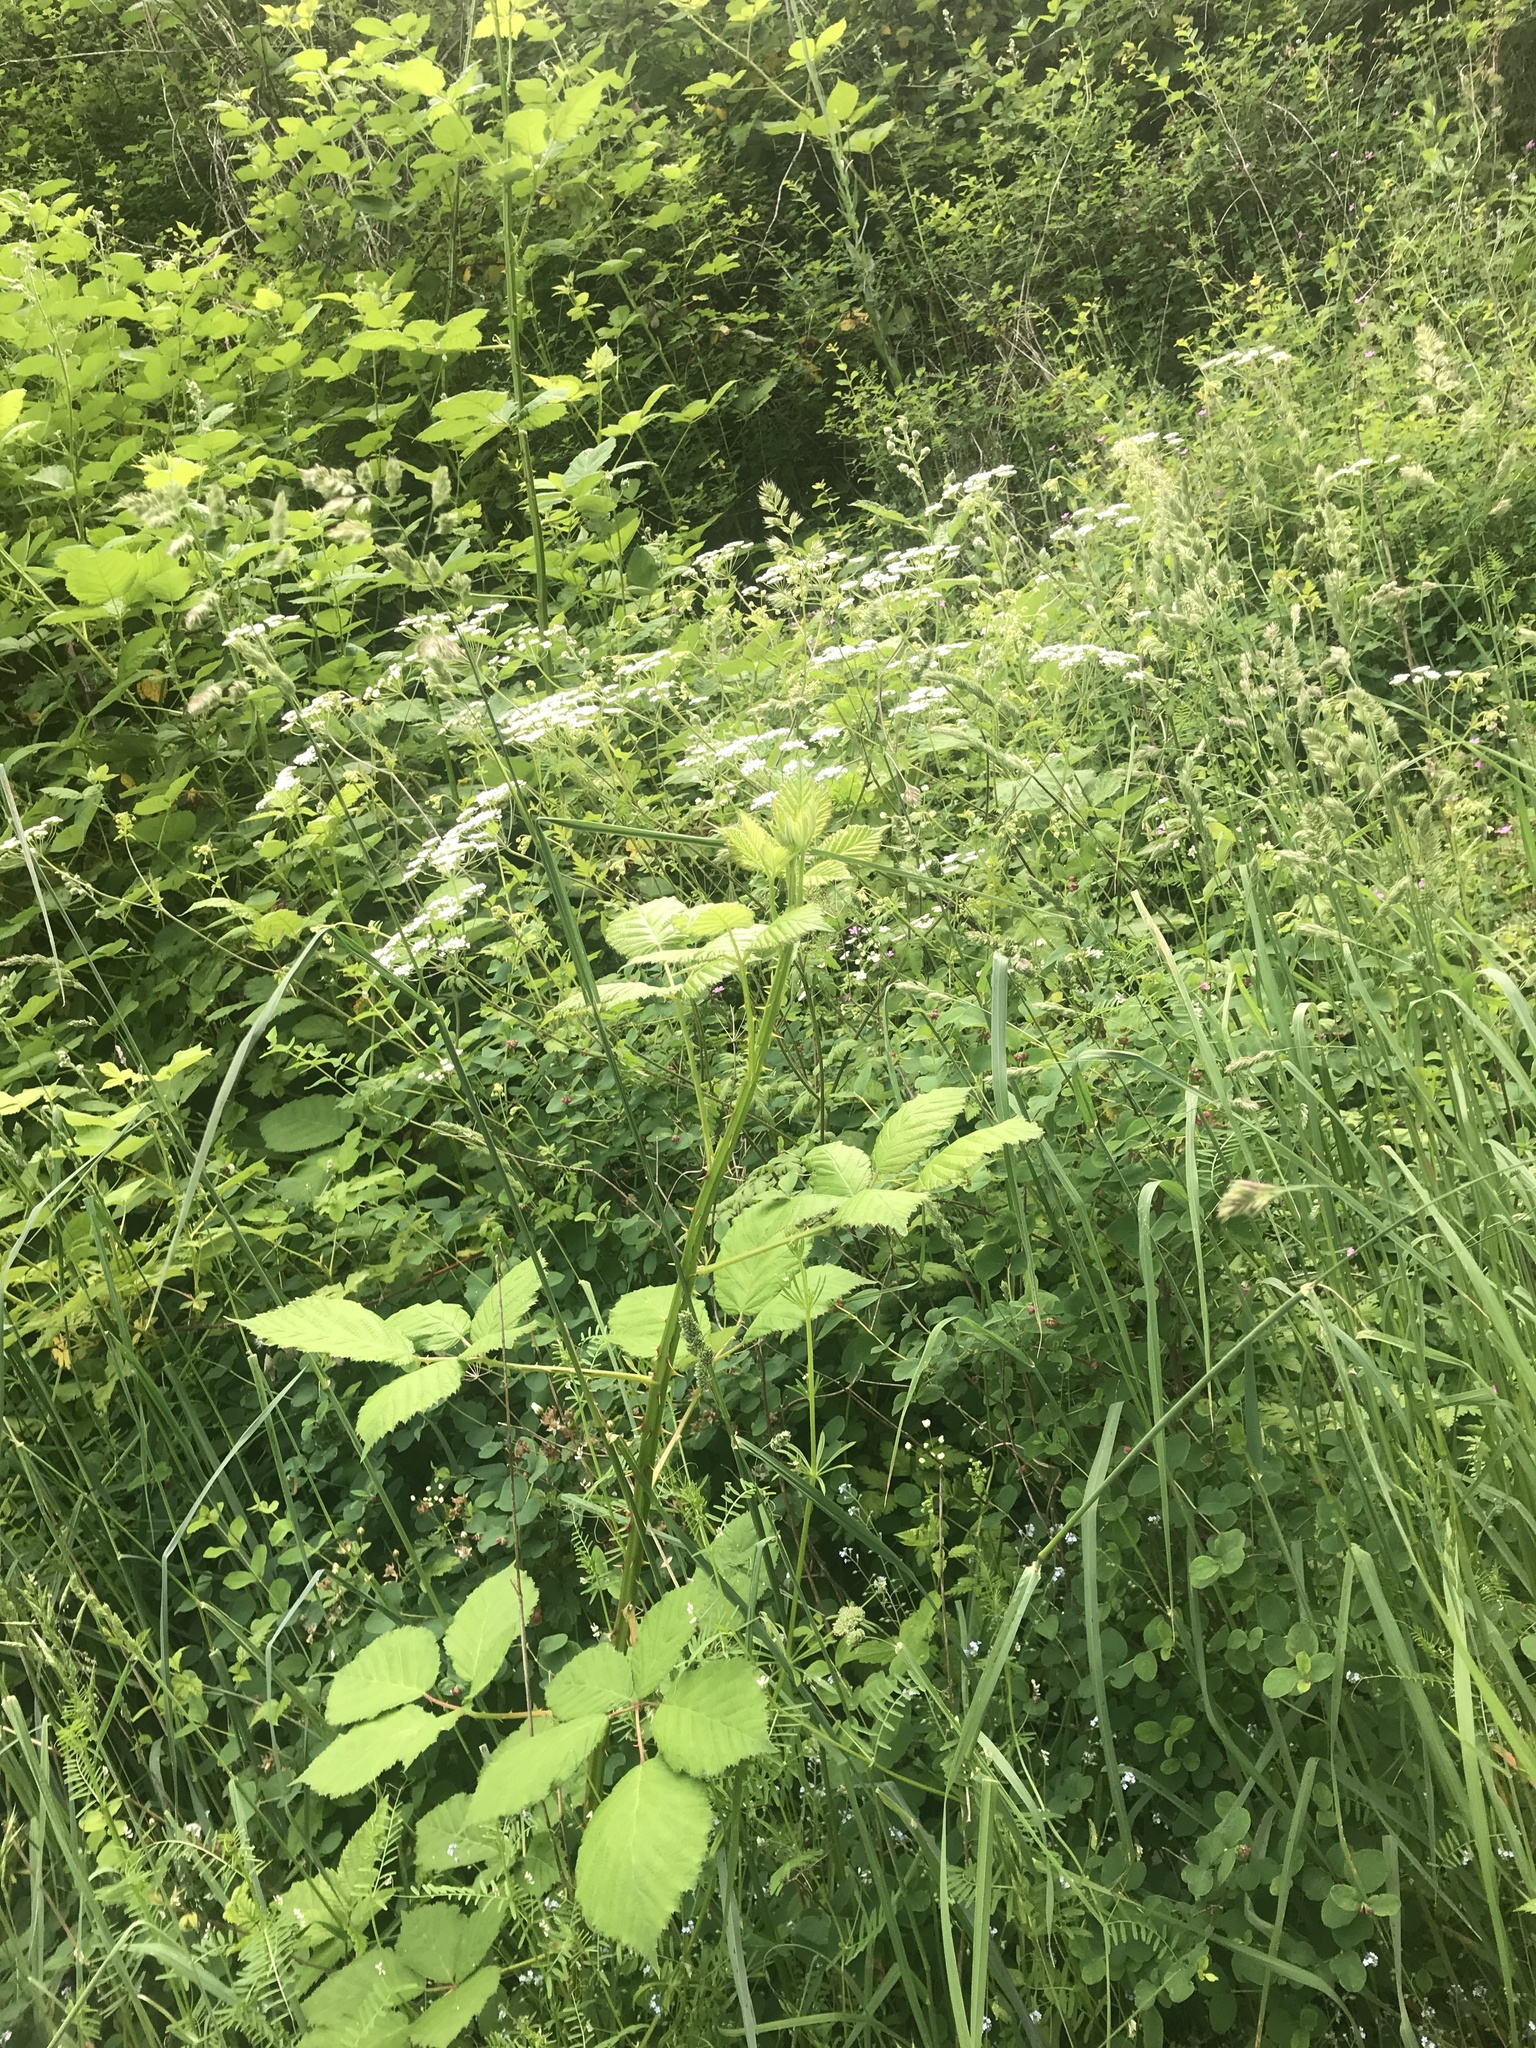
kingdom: Plantae
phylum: Tracheophyta
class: Magnoliopsida
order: Apiales
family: Apiaceae
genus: Chaerophyllum
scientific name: Chaerophyllum temulum
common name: Rough chervil
